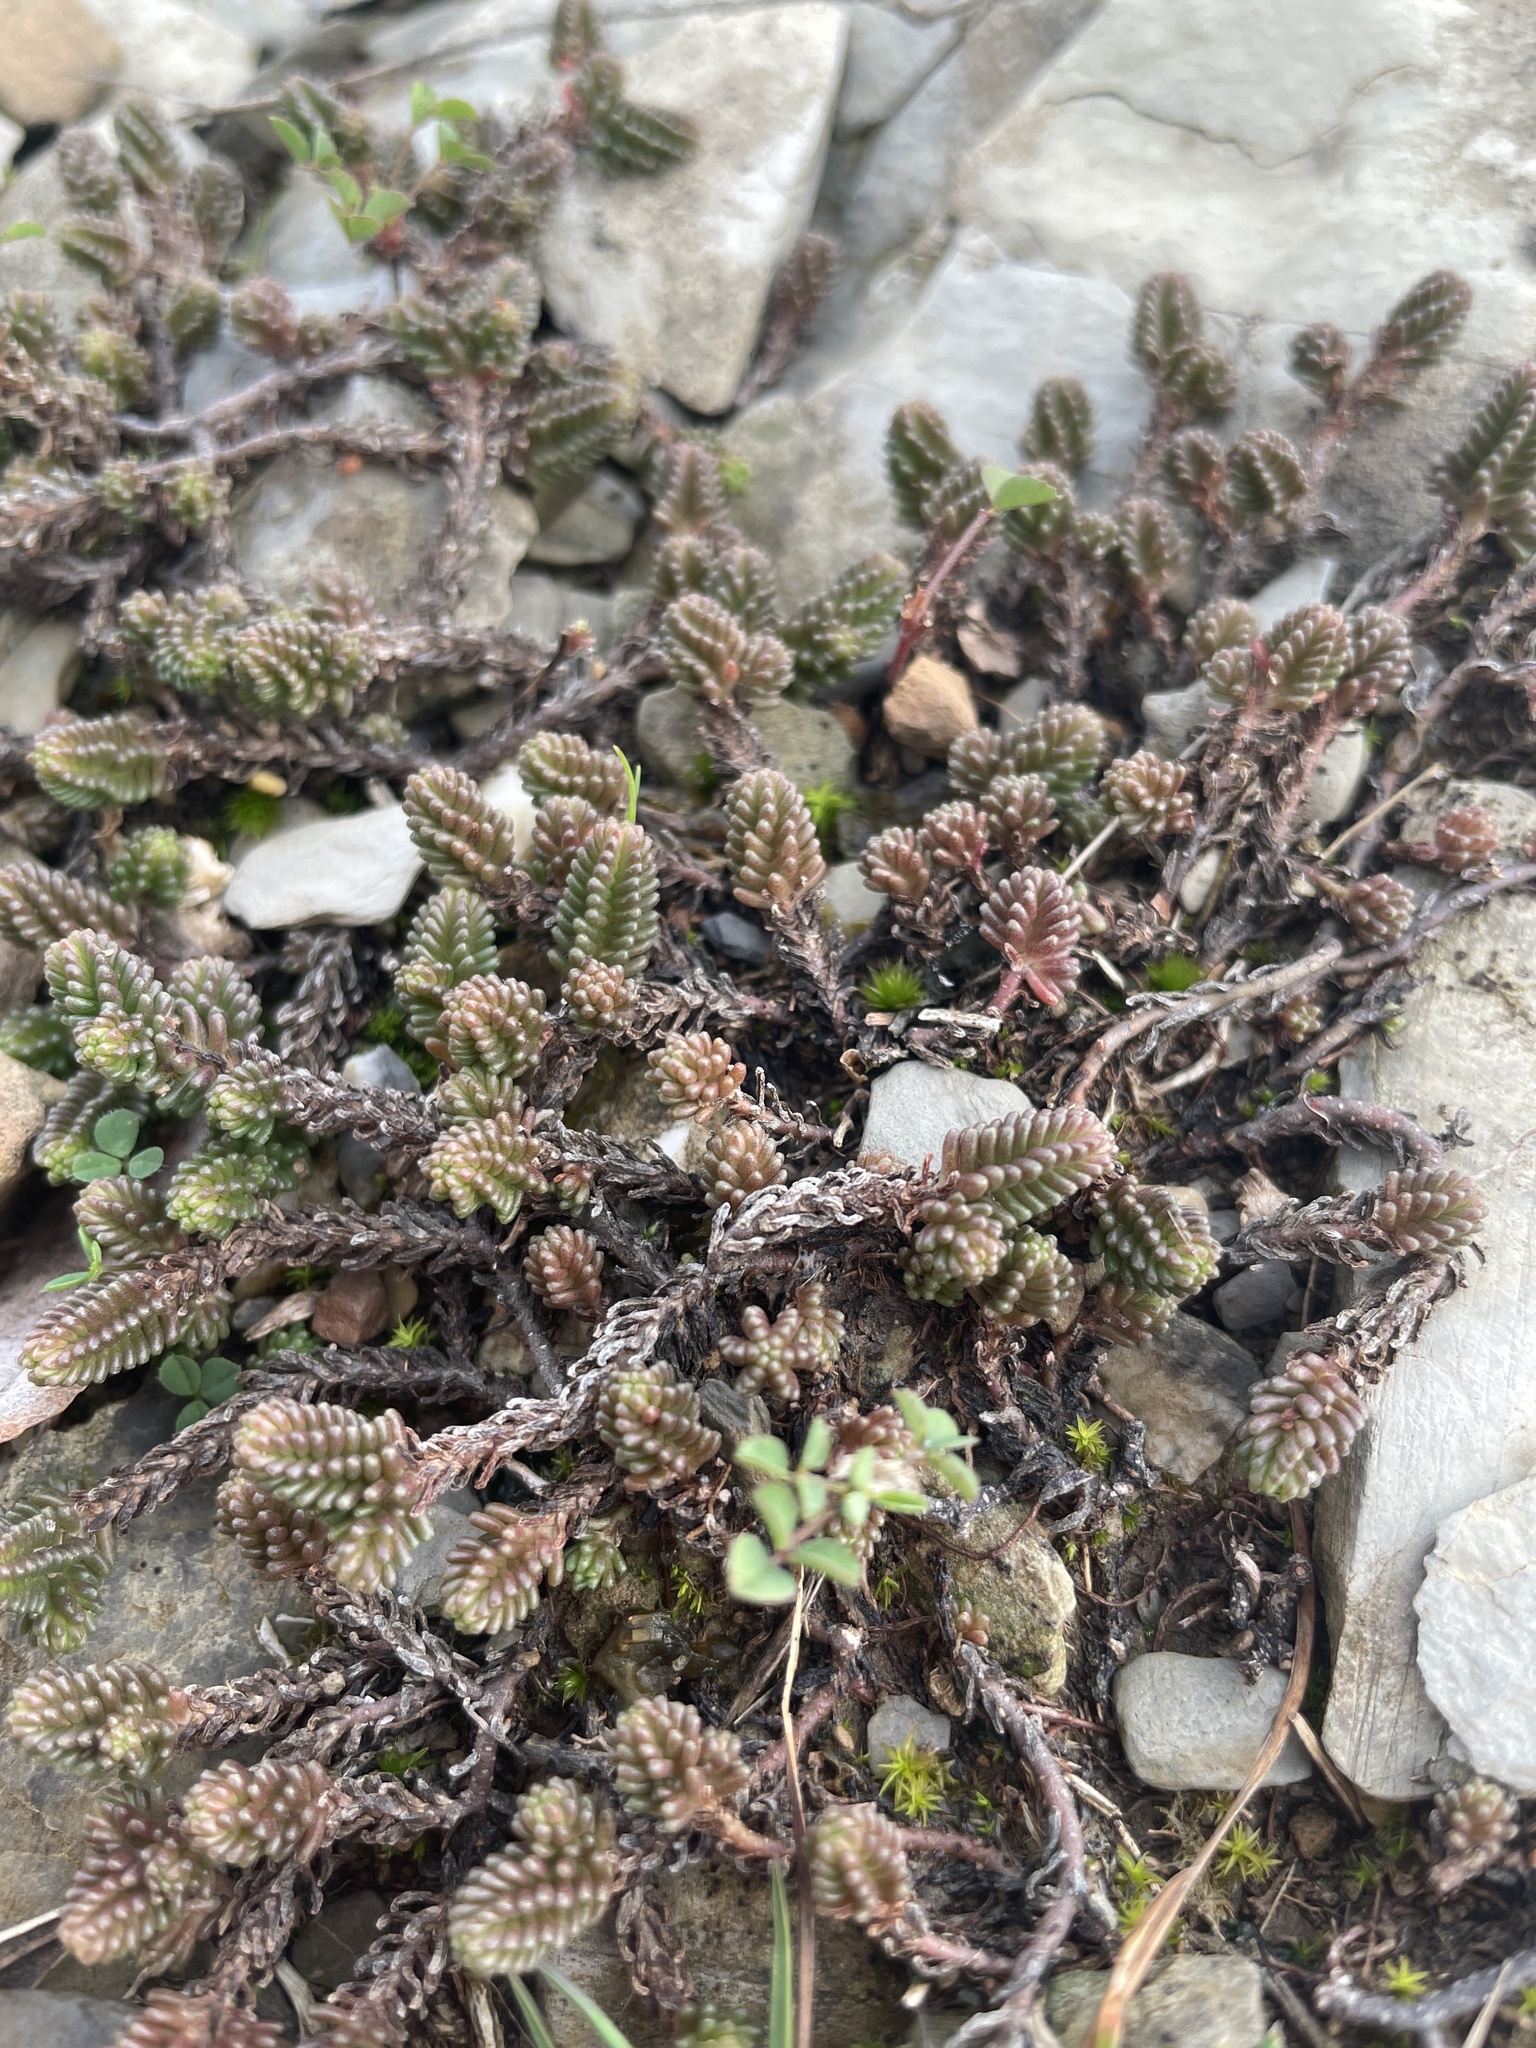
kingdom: Plantae
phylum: Tracheophyta
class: Magnoliopsida
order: Saxifragales
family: Crassulaceae
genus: Sedum
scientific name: Sedum sexangulare
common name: Tasteless stonecrop
